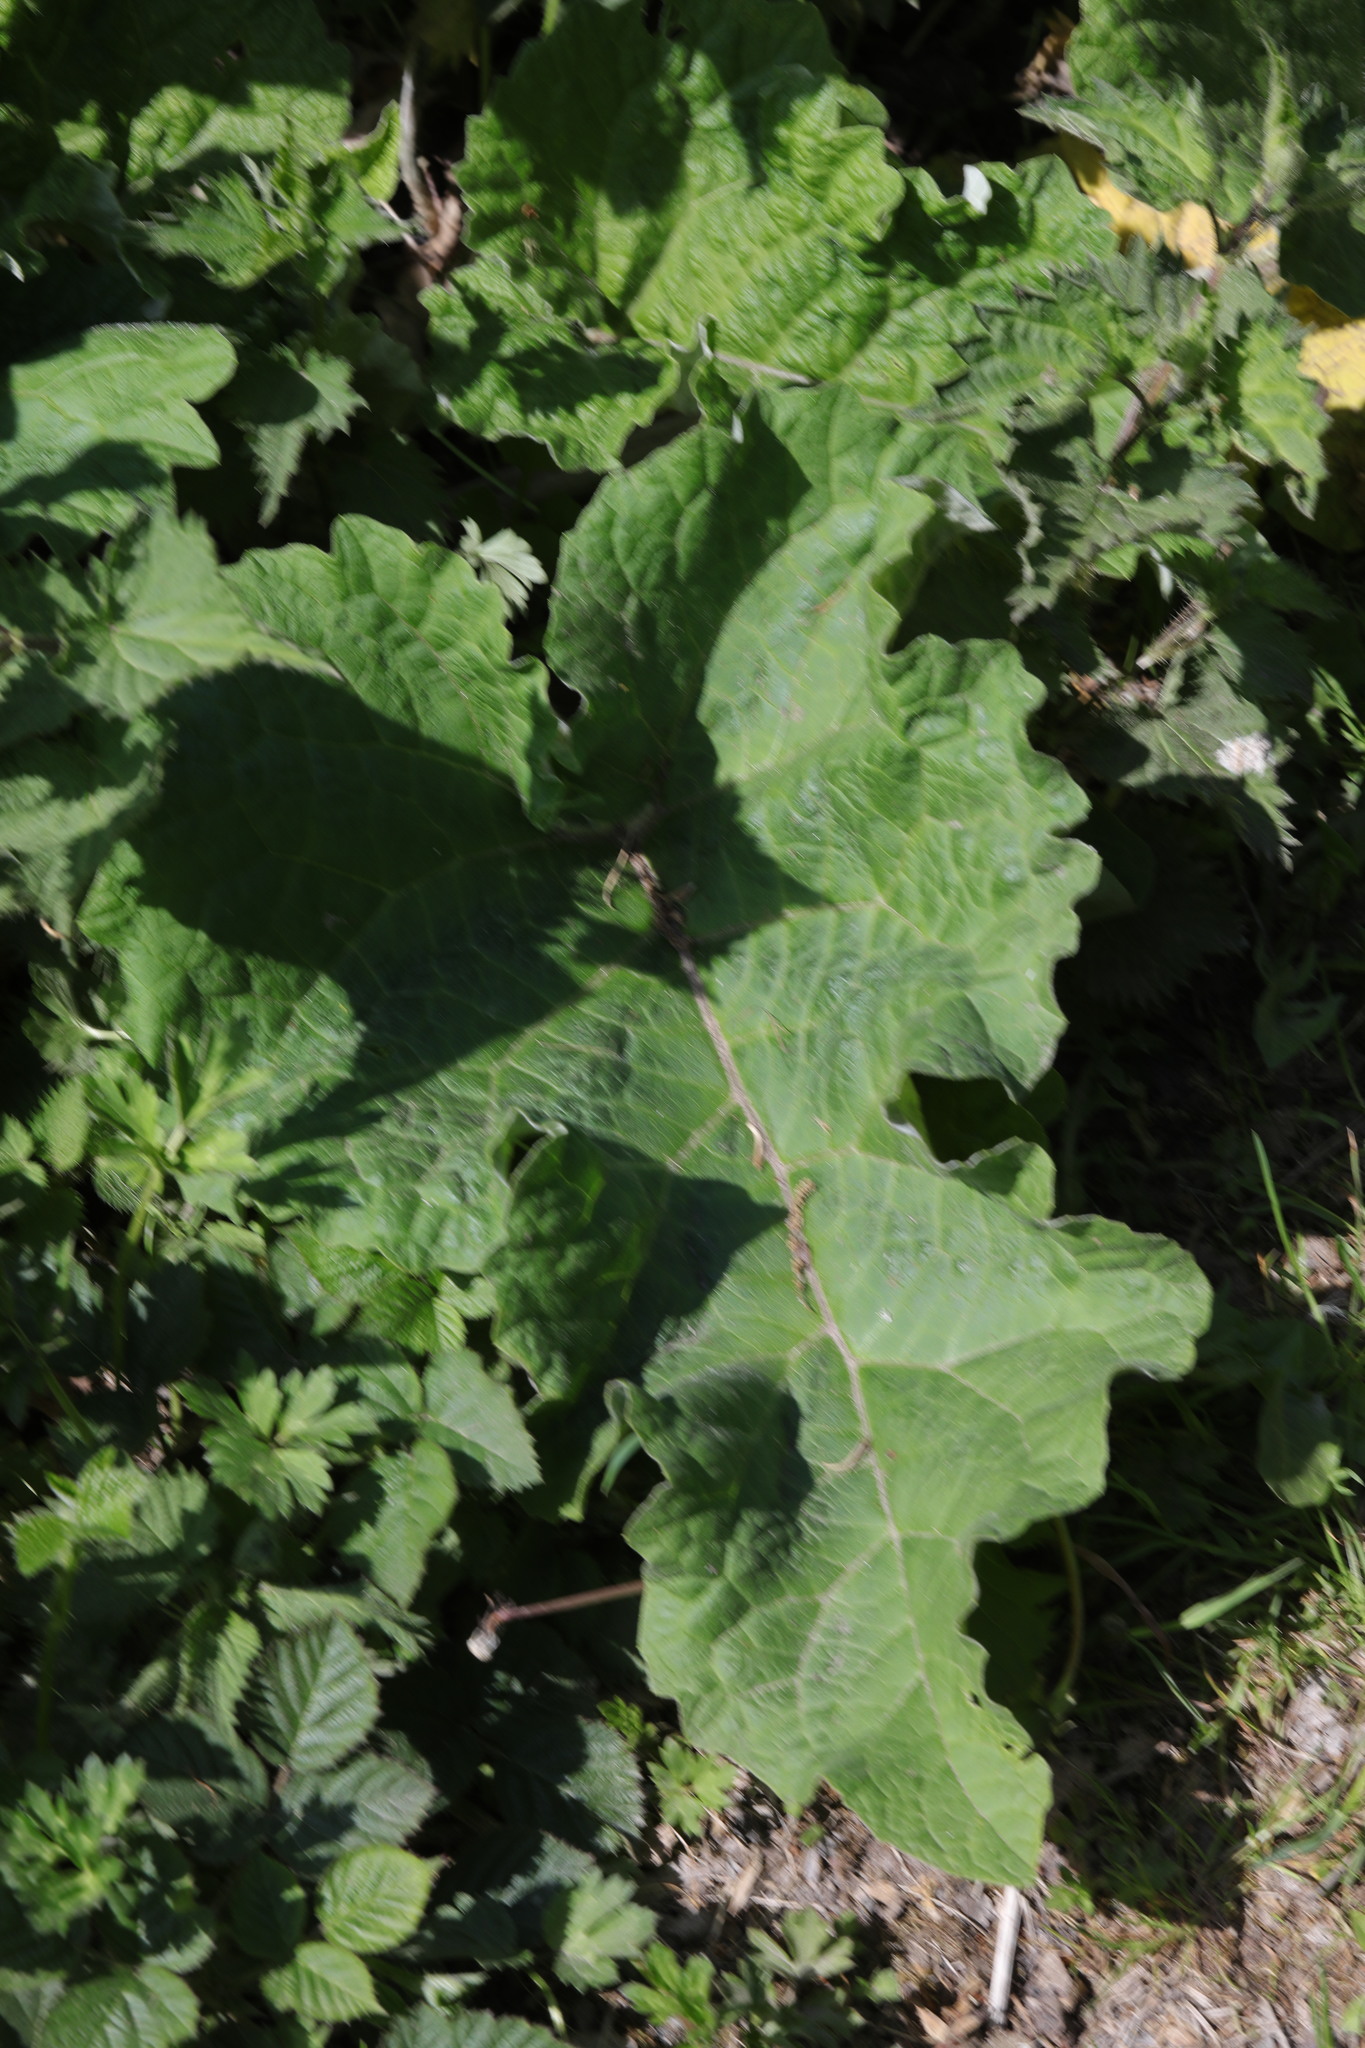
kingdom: Plantae
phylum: Tracheophyta
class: Magnoliopsida
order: Asterales
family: Asteraceae
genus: Arctium
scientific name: Arctium minus
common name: Lesser burdock
